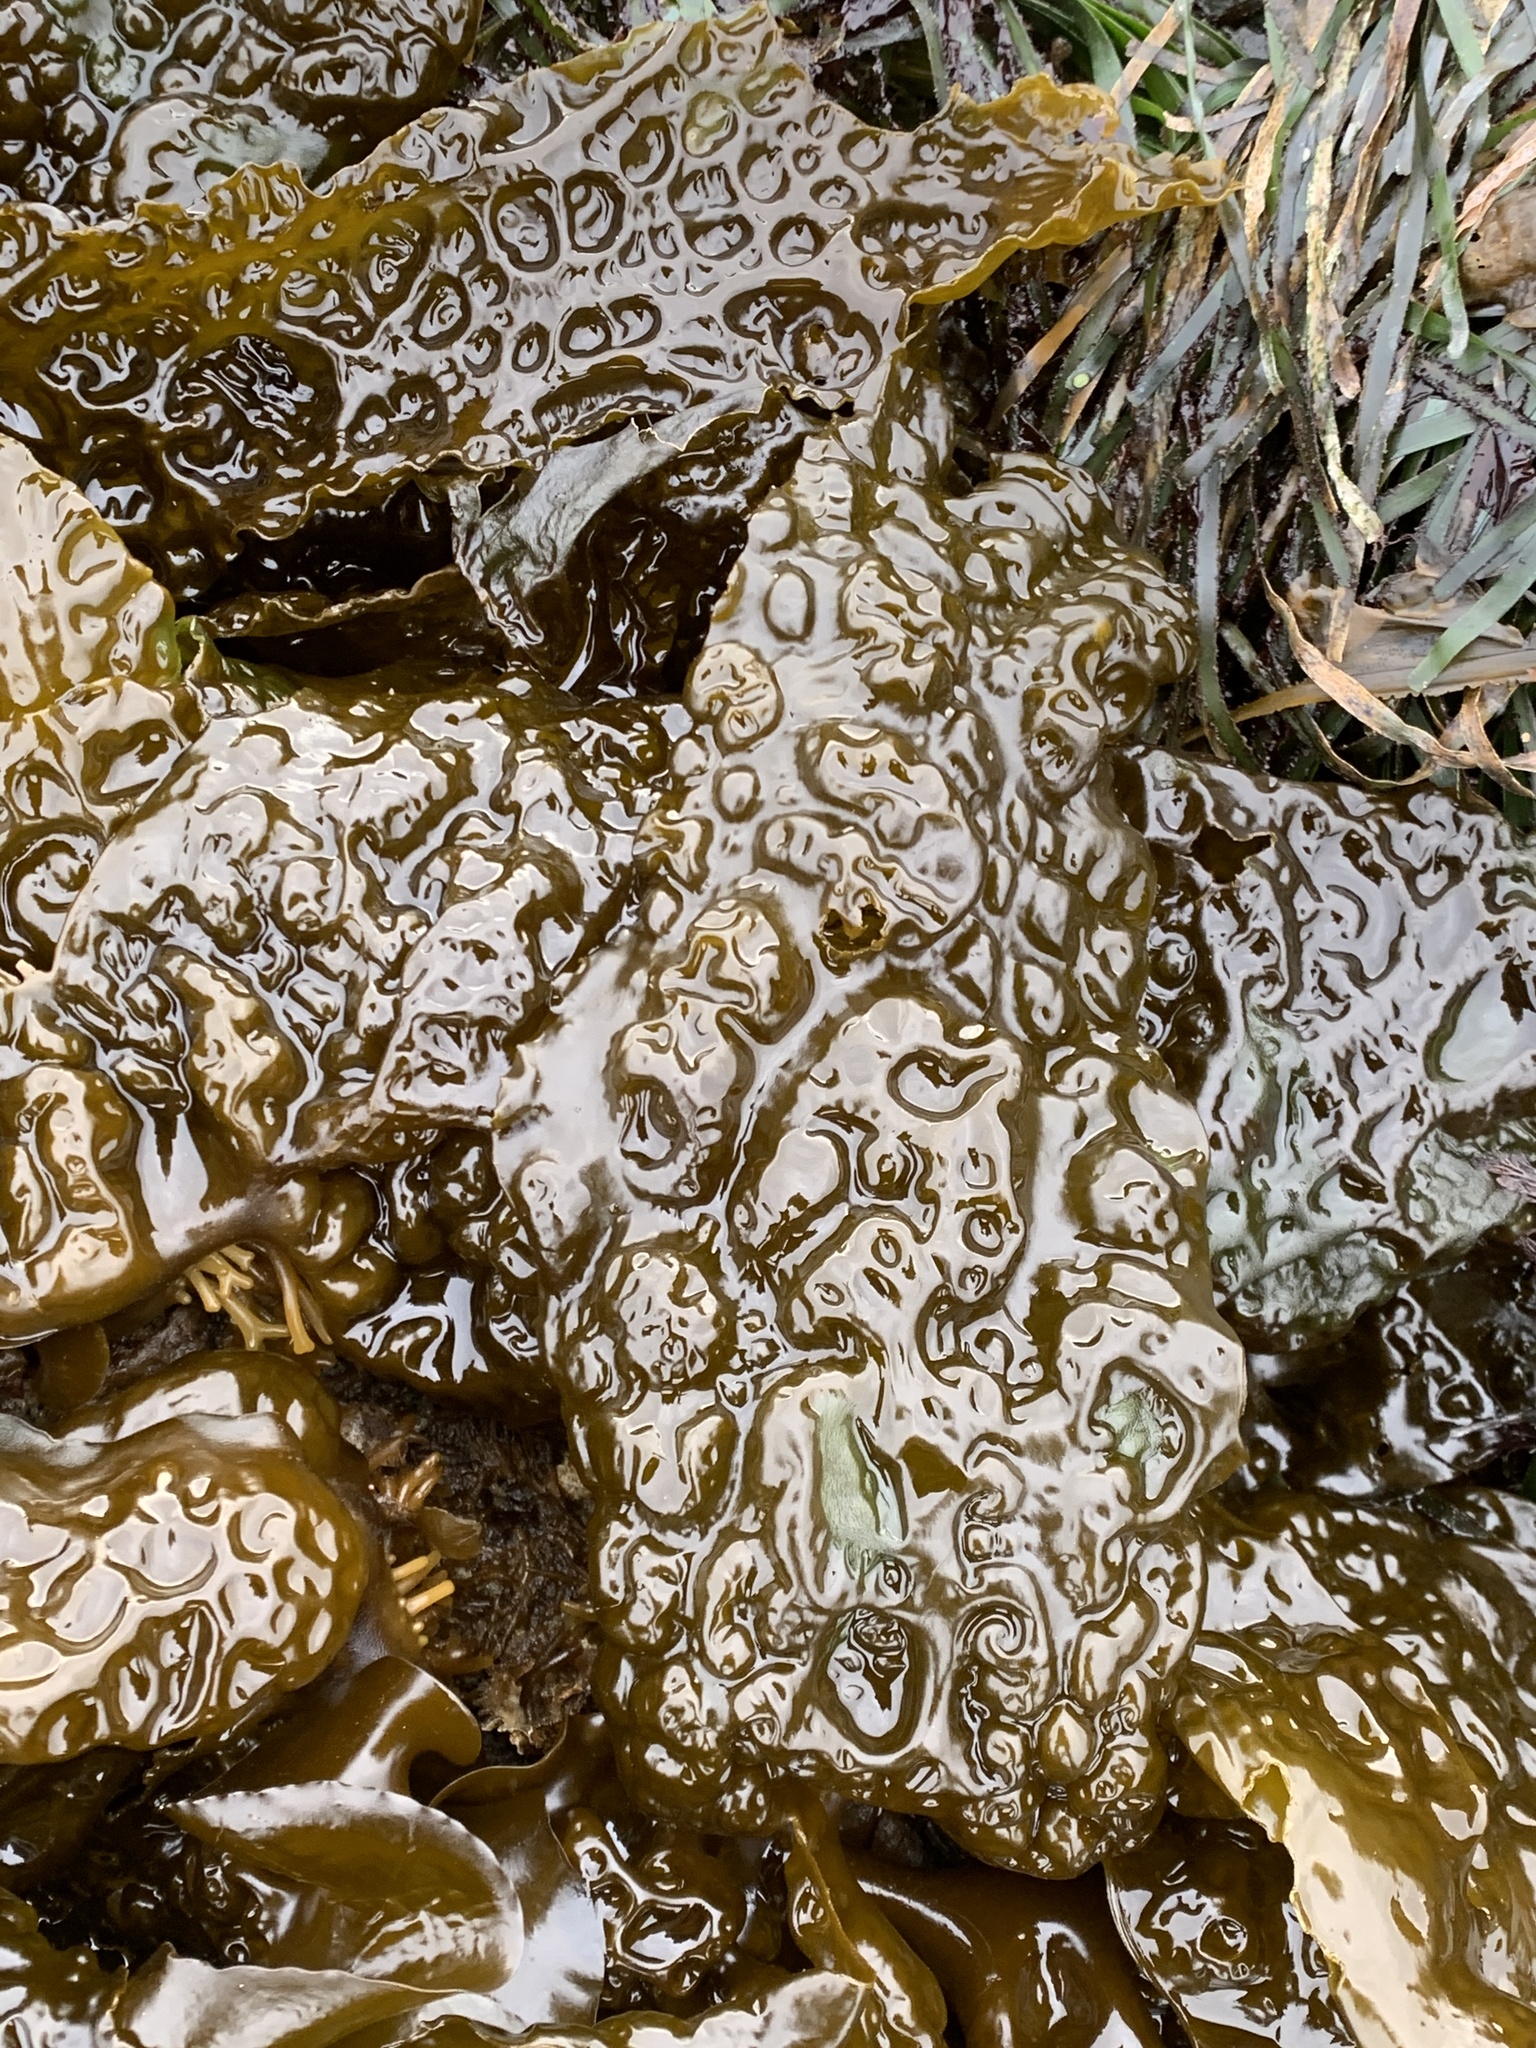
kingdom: Chromista
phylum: Ochrophyta
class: Phaeophyceae
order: Laminariales
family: Laminariaceae
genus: Hedophyllum
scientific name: Hedophyllum sessile
